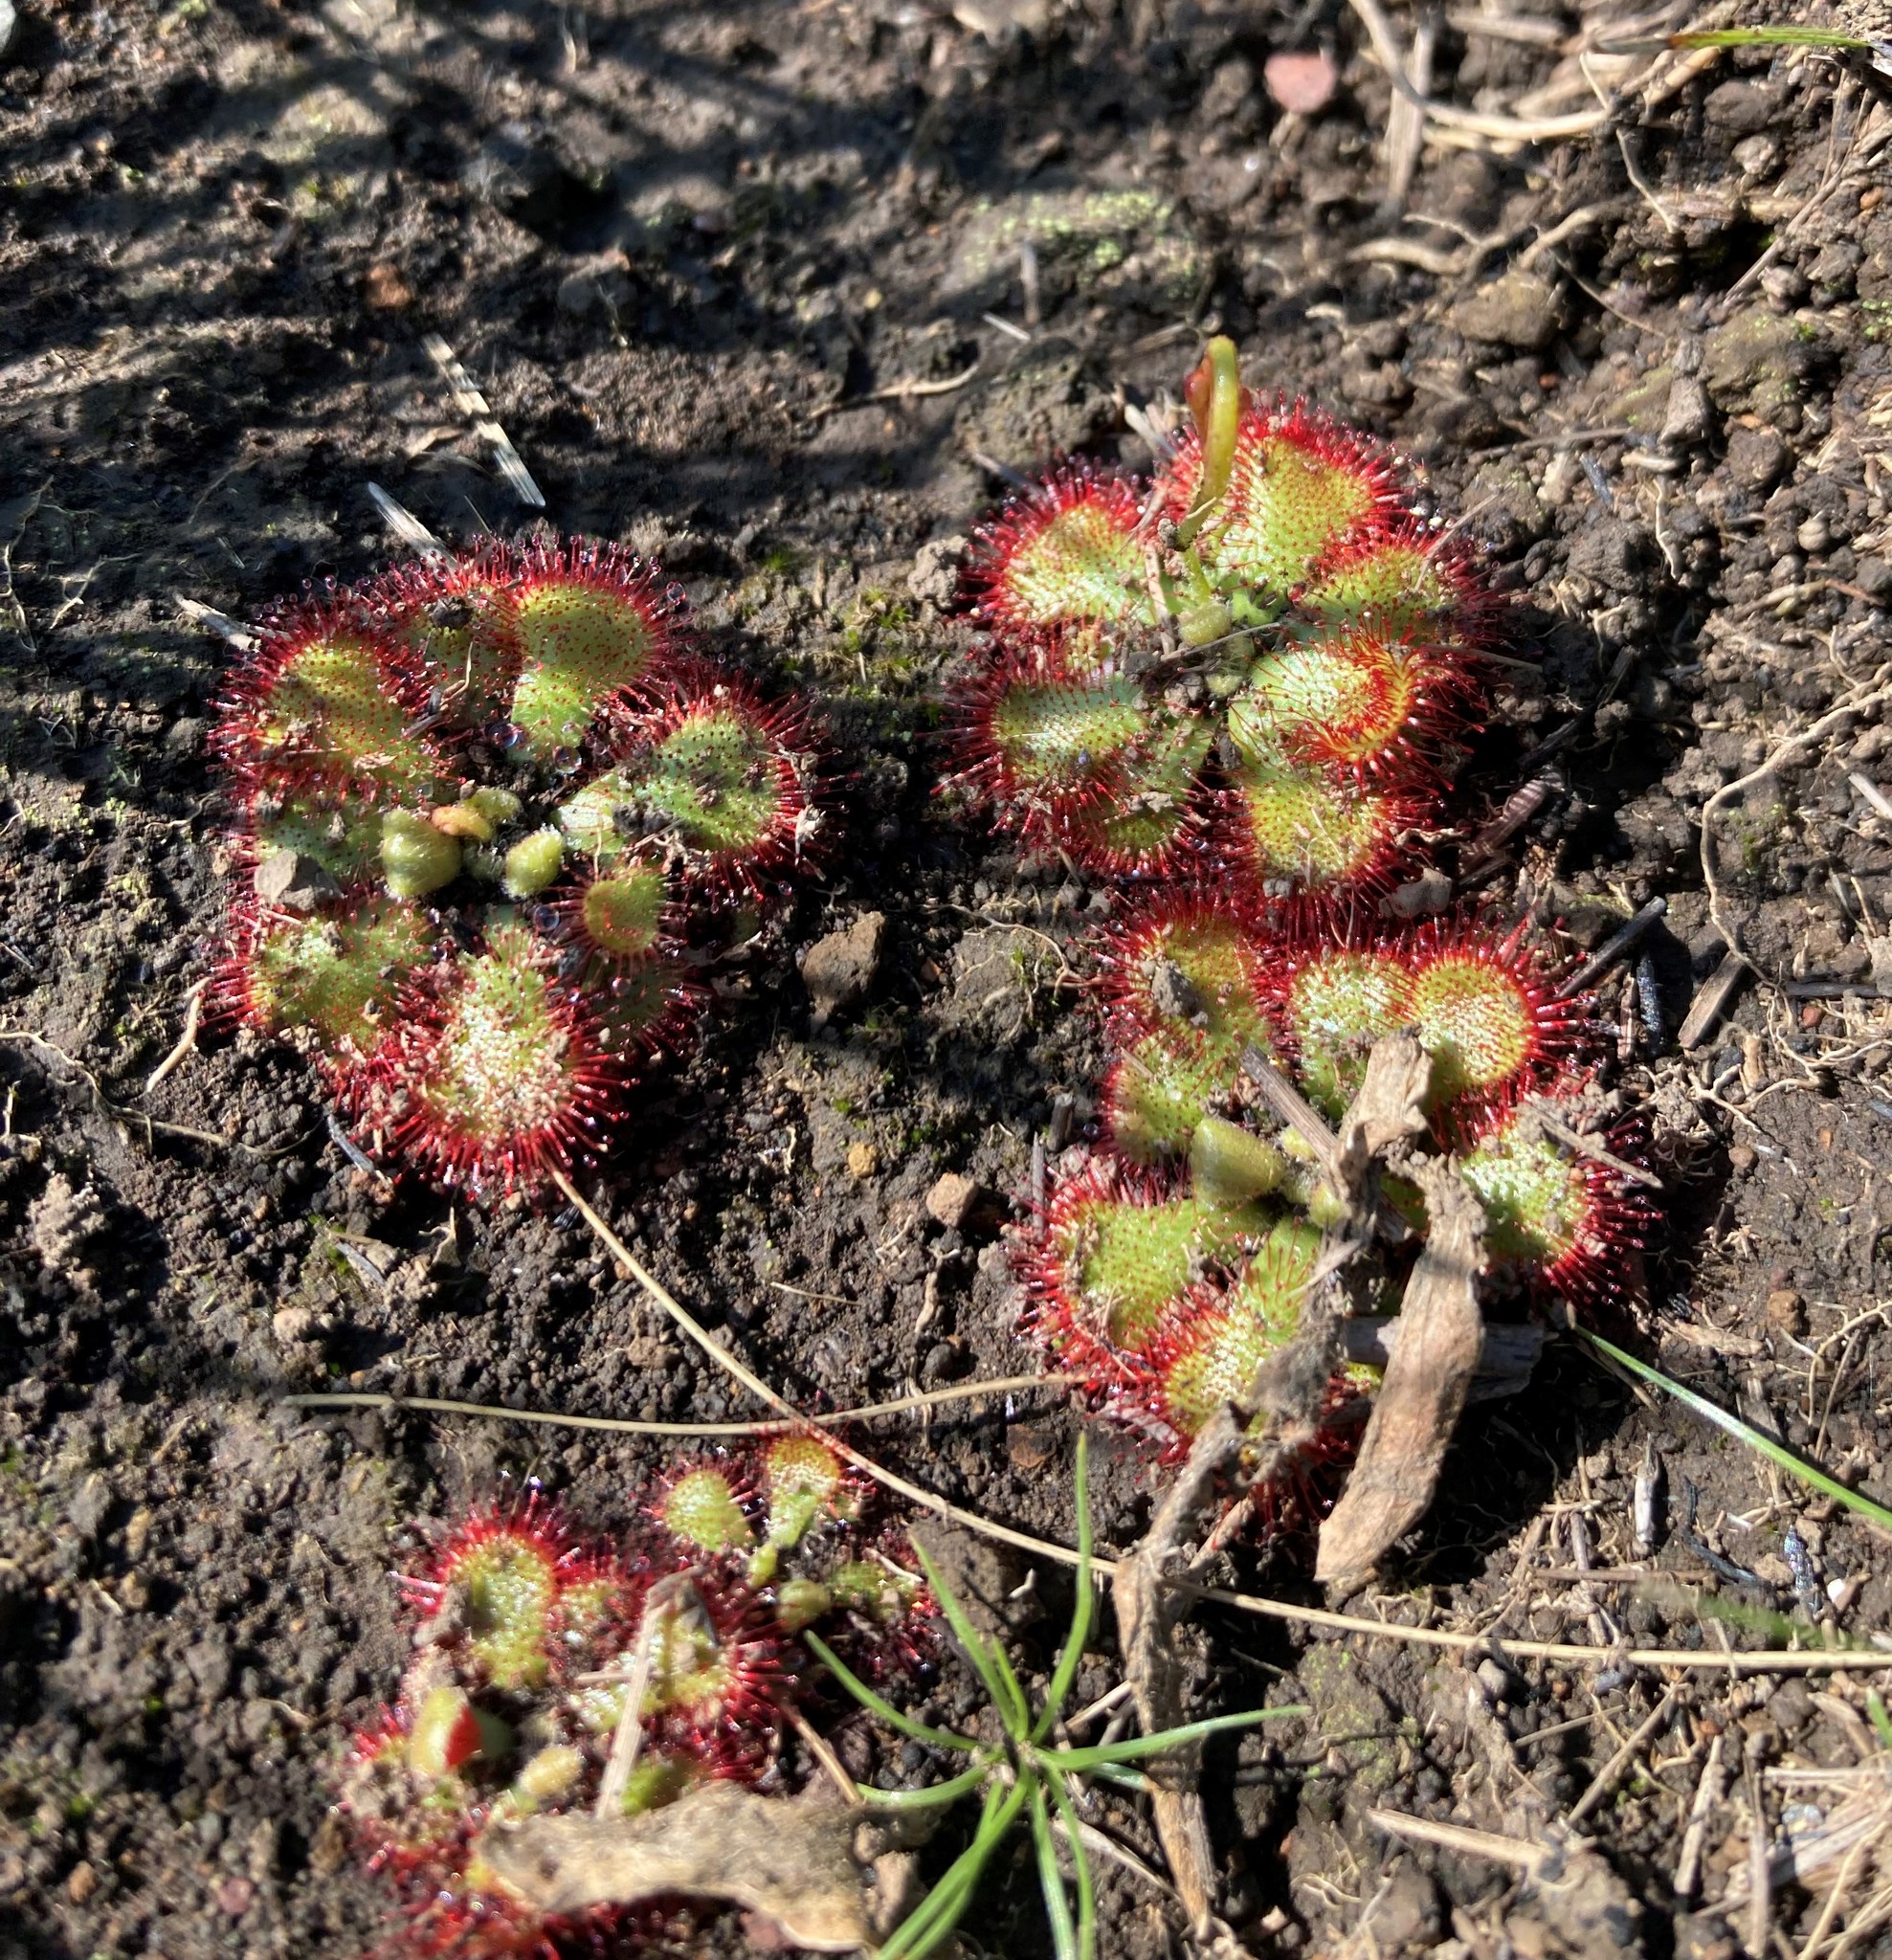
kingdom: Plantae
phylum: Tracheophyta
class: Magnoliopsida
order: Caryophyllales
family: Droseraceae
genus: Drosera
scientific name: Drosera natalensis
